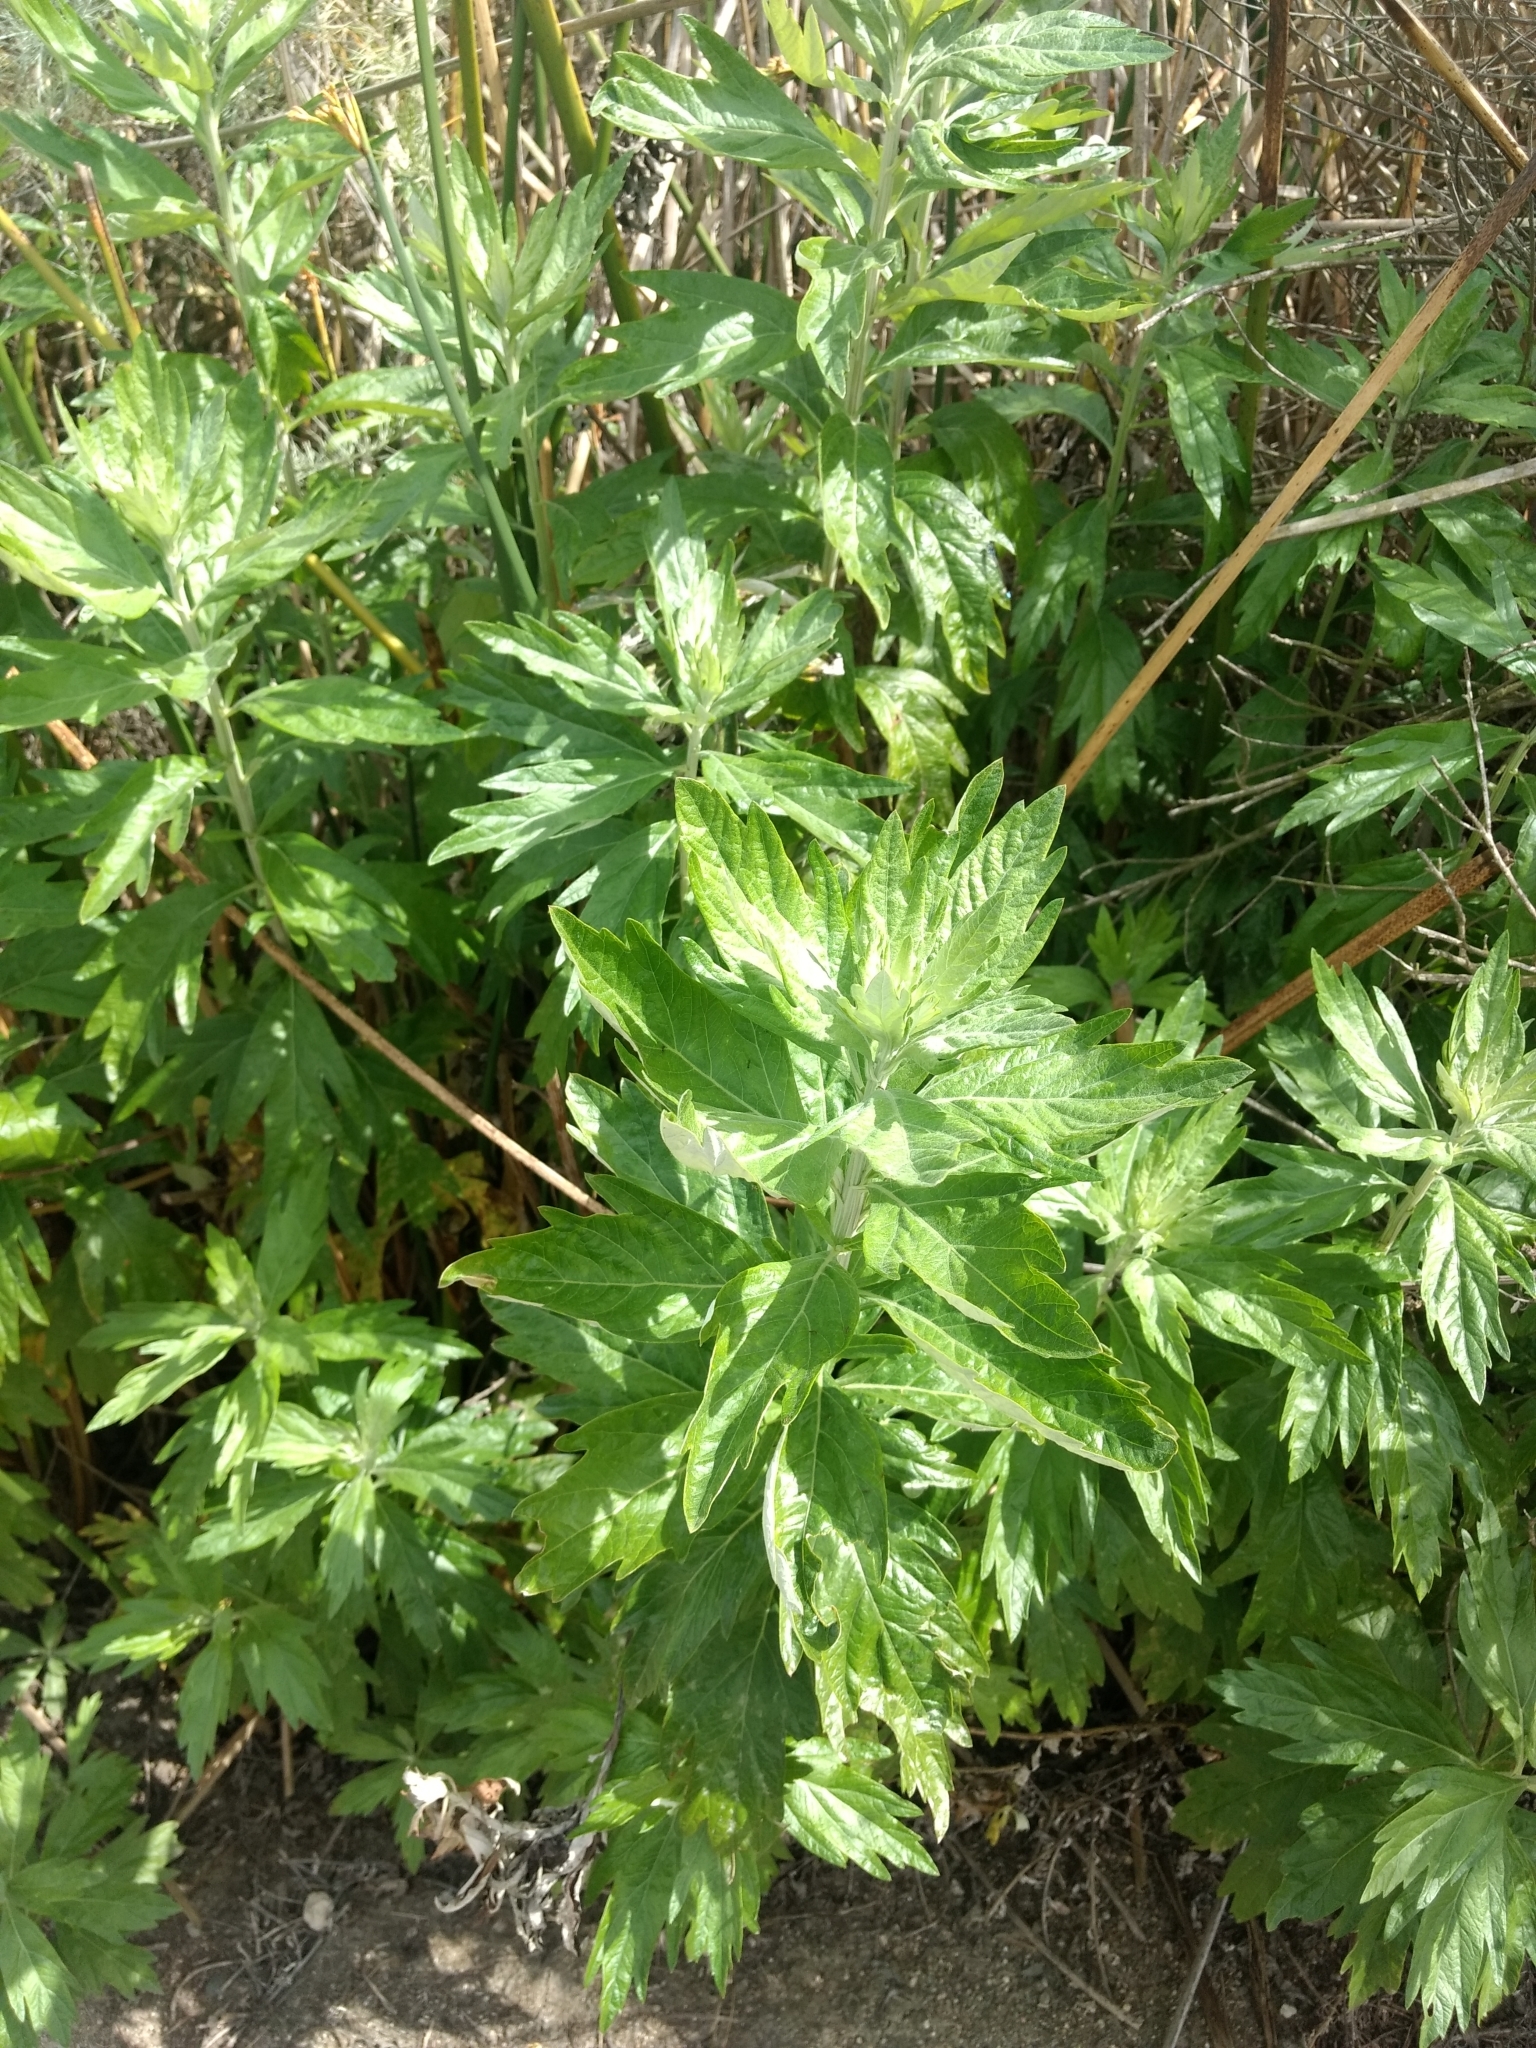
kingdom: Plantae
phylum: Tracheophyta
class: Magnoliopsida
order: Asterales
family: Asteraceae
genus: Artemisia
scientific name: Artemisia douglasiana
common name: Northwest mugwort
